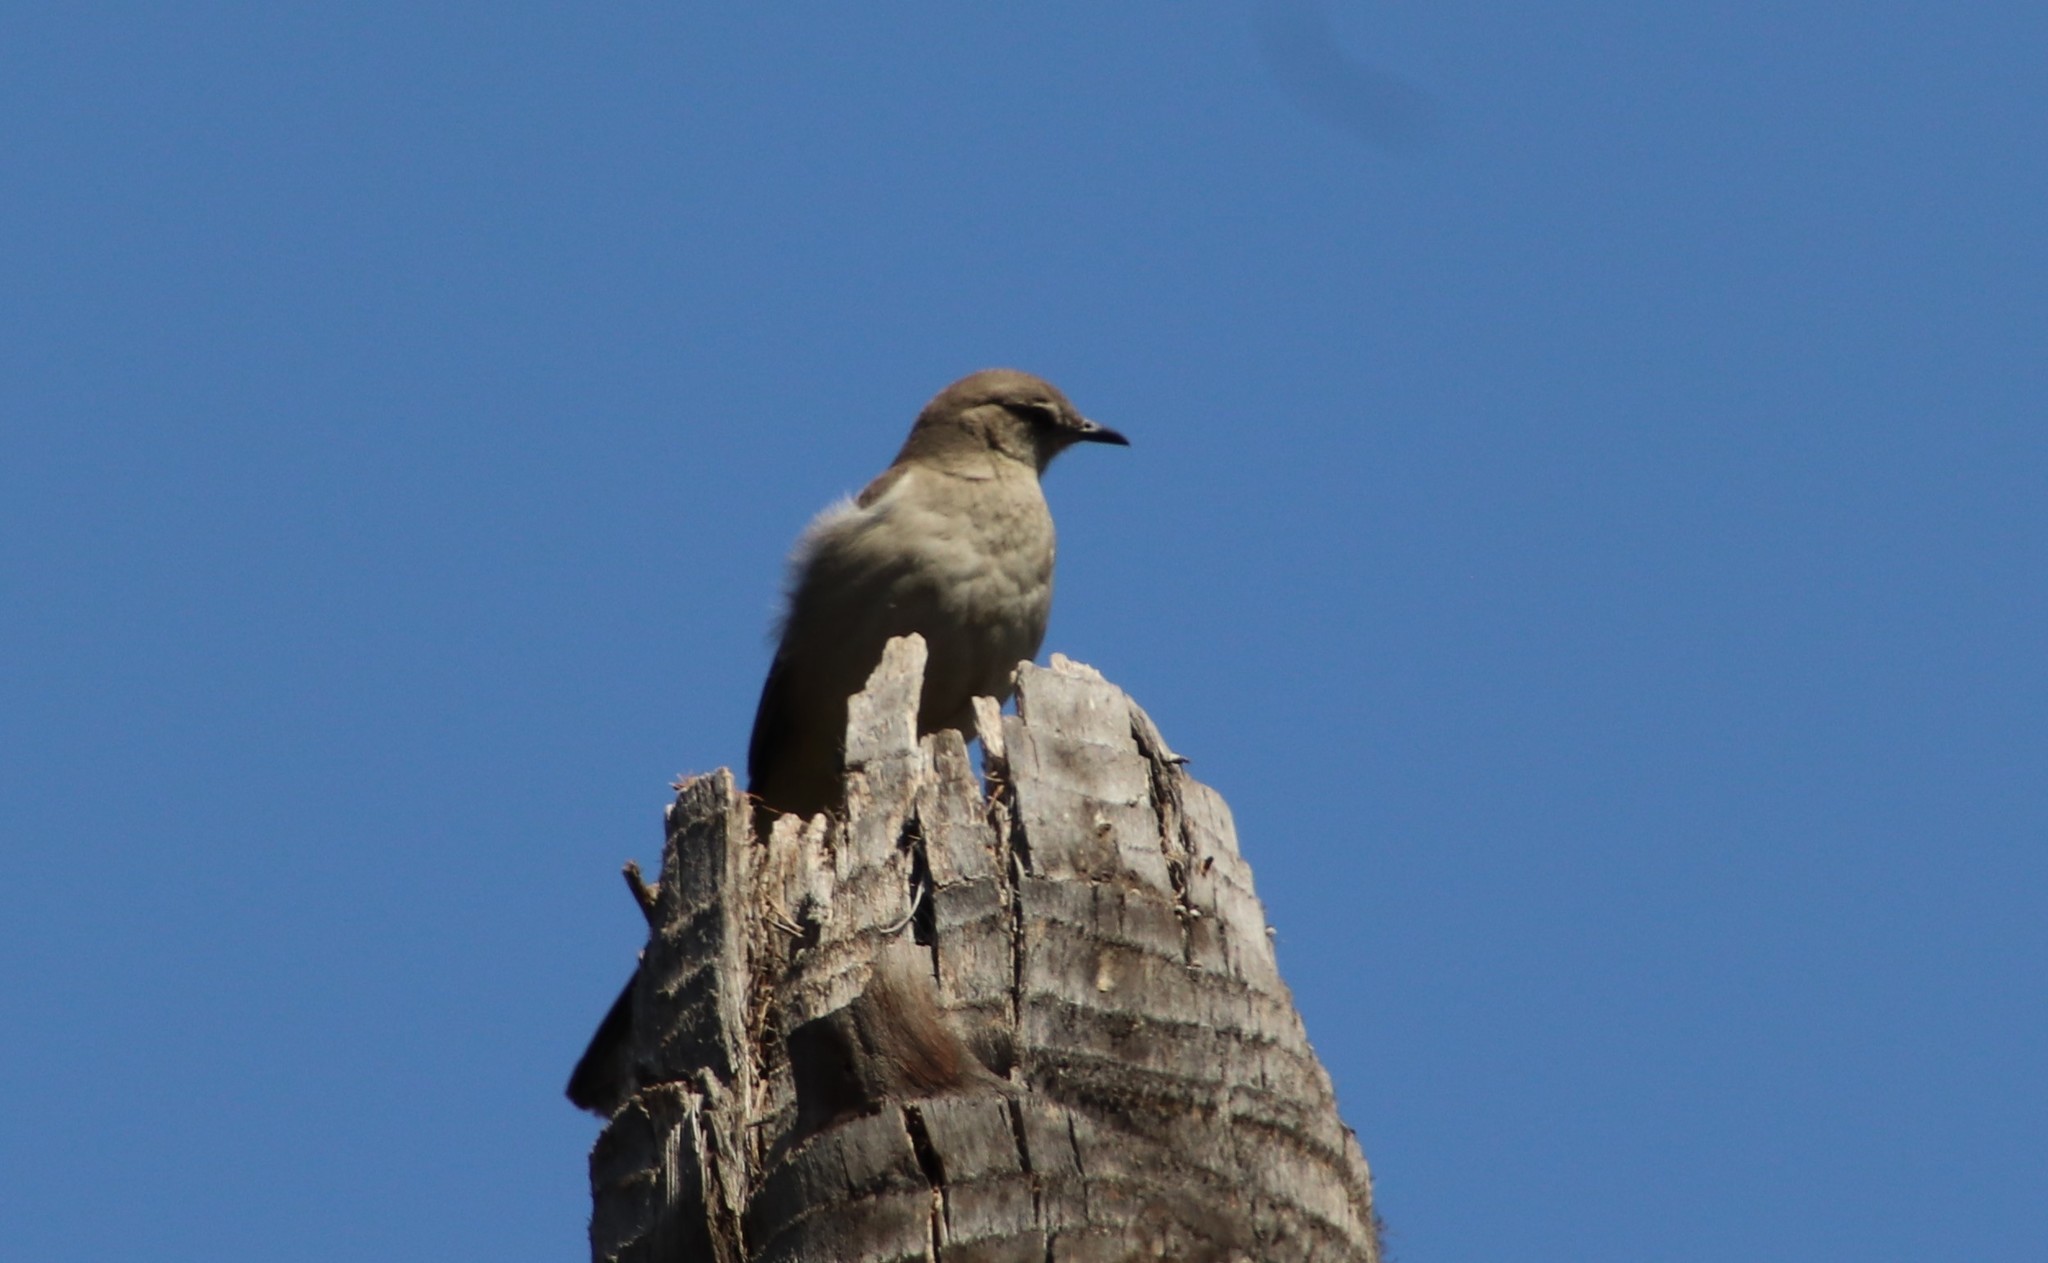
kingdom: Animalia
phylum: Chordata
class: Aves
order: Passeriformes
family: Mimidae
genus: Mimus
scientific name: Mimus polyglottos
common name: Northern mockingbird
